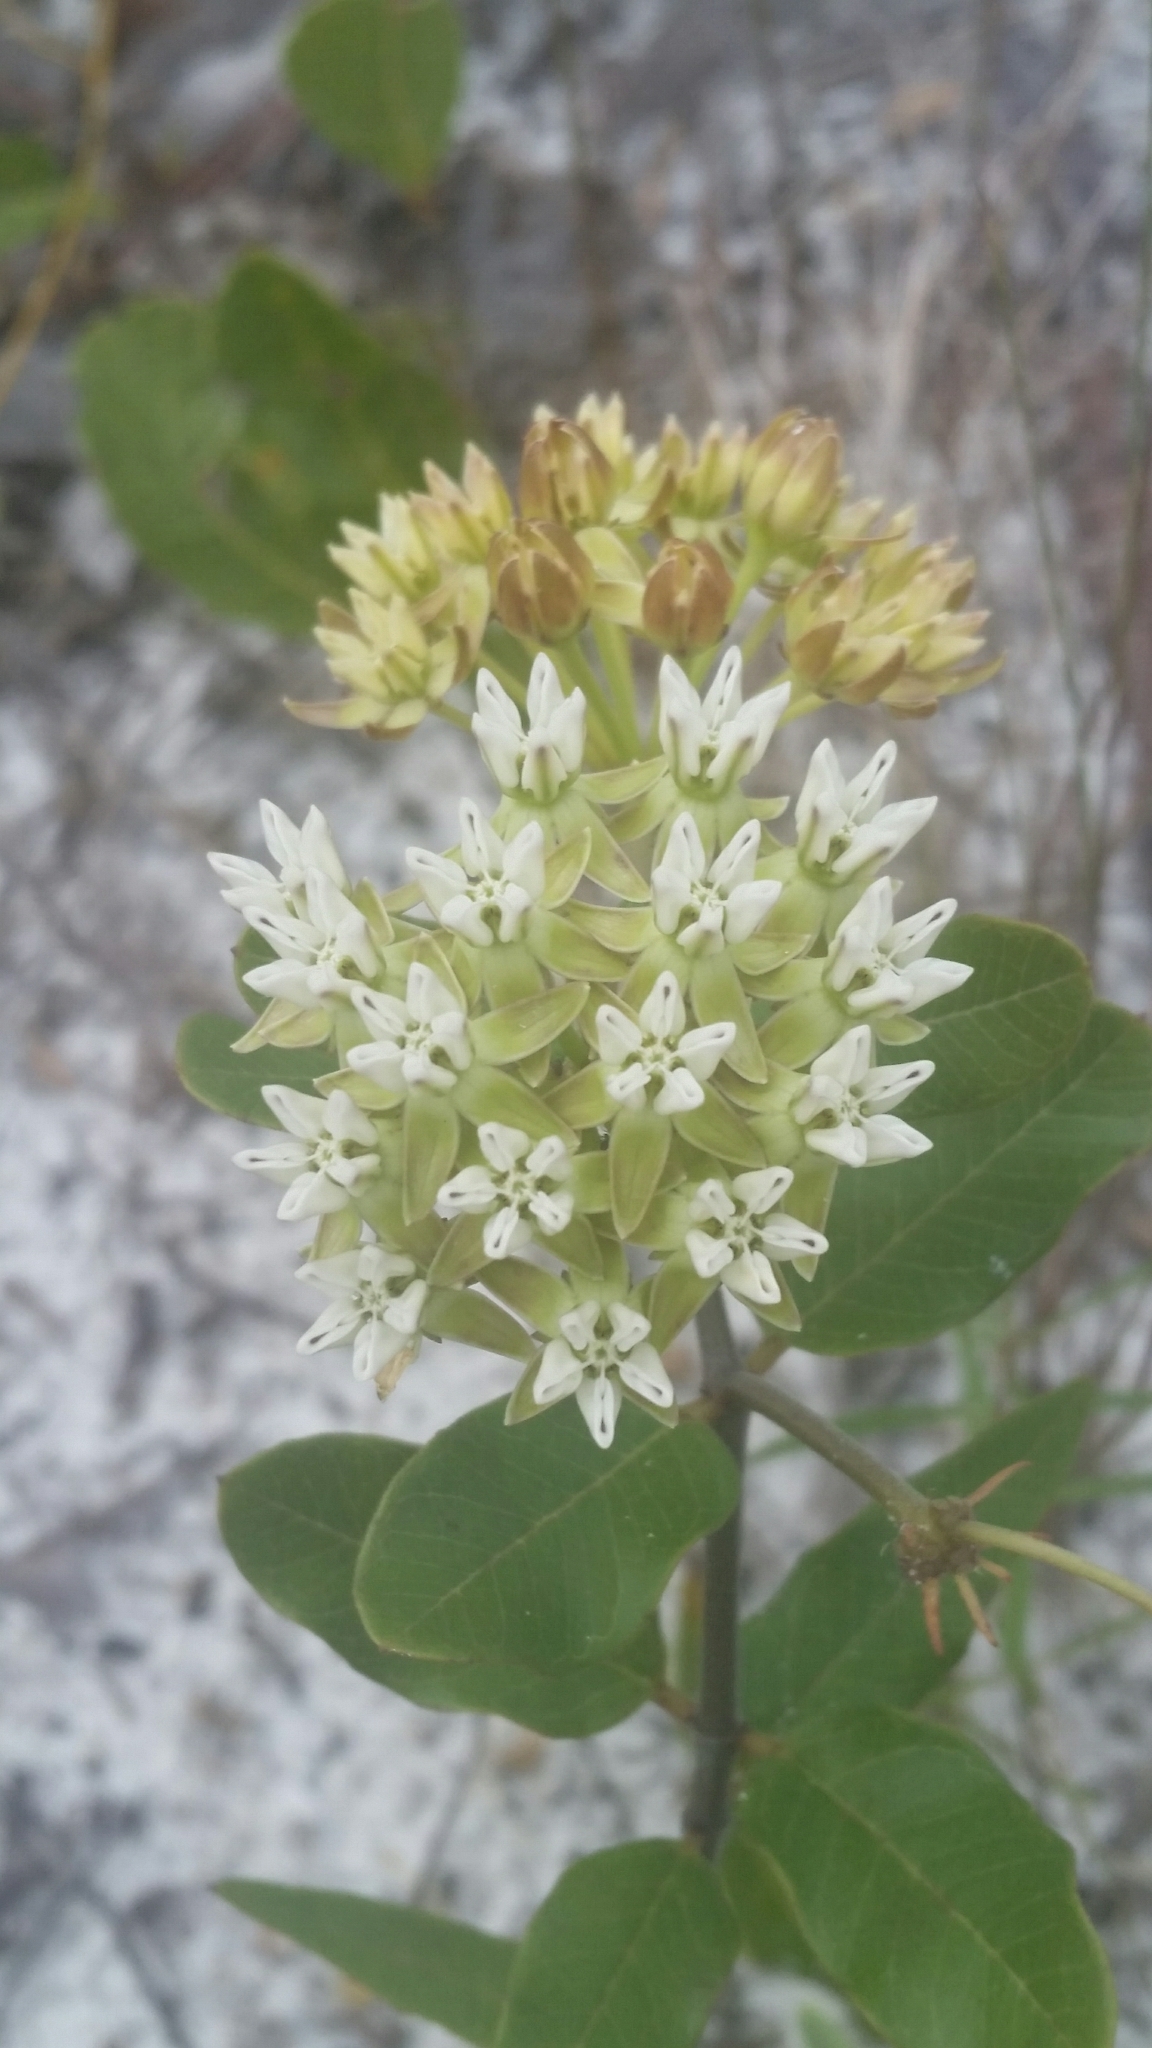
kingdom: Plantae
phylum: Tracheophyta
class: Magnoliopsida
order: Gentianales
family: Apocynaceae
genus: Asclepias
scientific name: Asclepias curtissii
